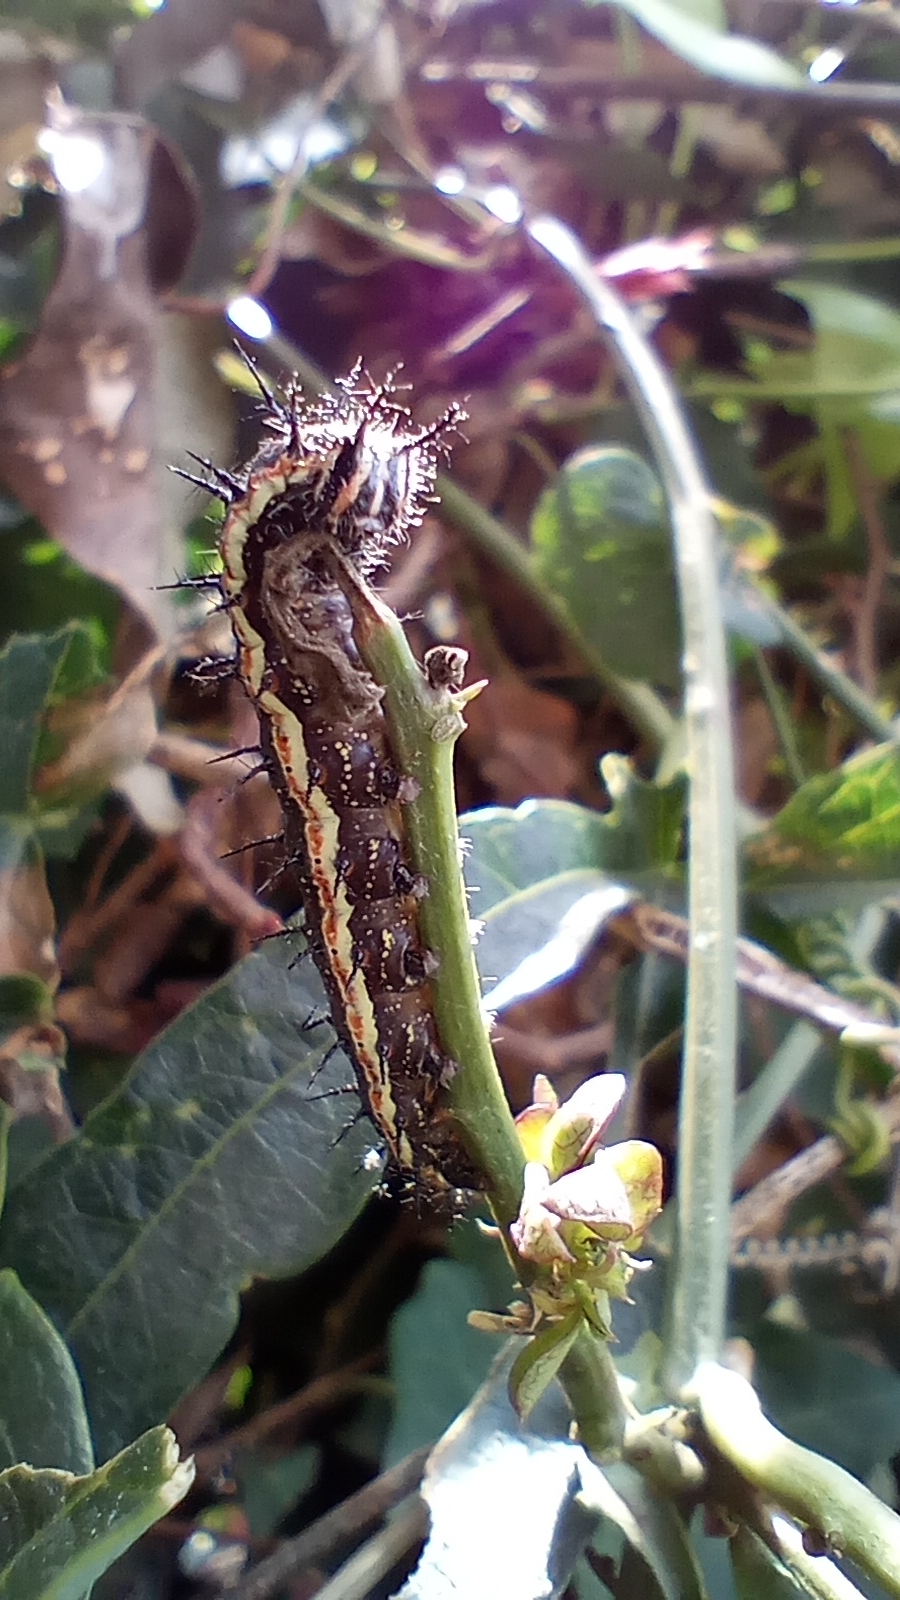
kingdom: Animalia
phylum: Arthropoda
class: Insecta
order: Lepidoptera
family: Nymphalidae
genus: Dione
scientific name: Dione vanillae
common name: Gulf fritillary
